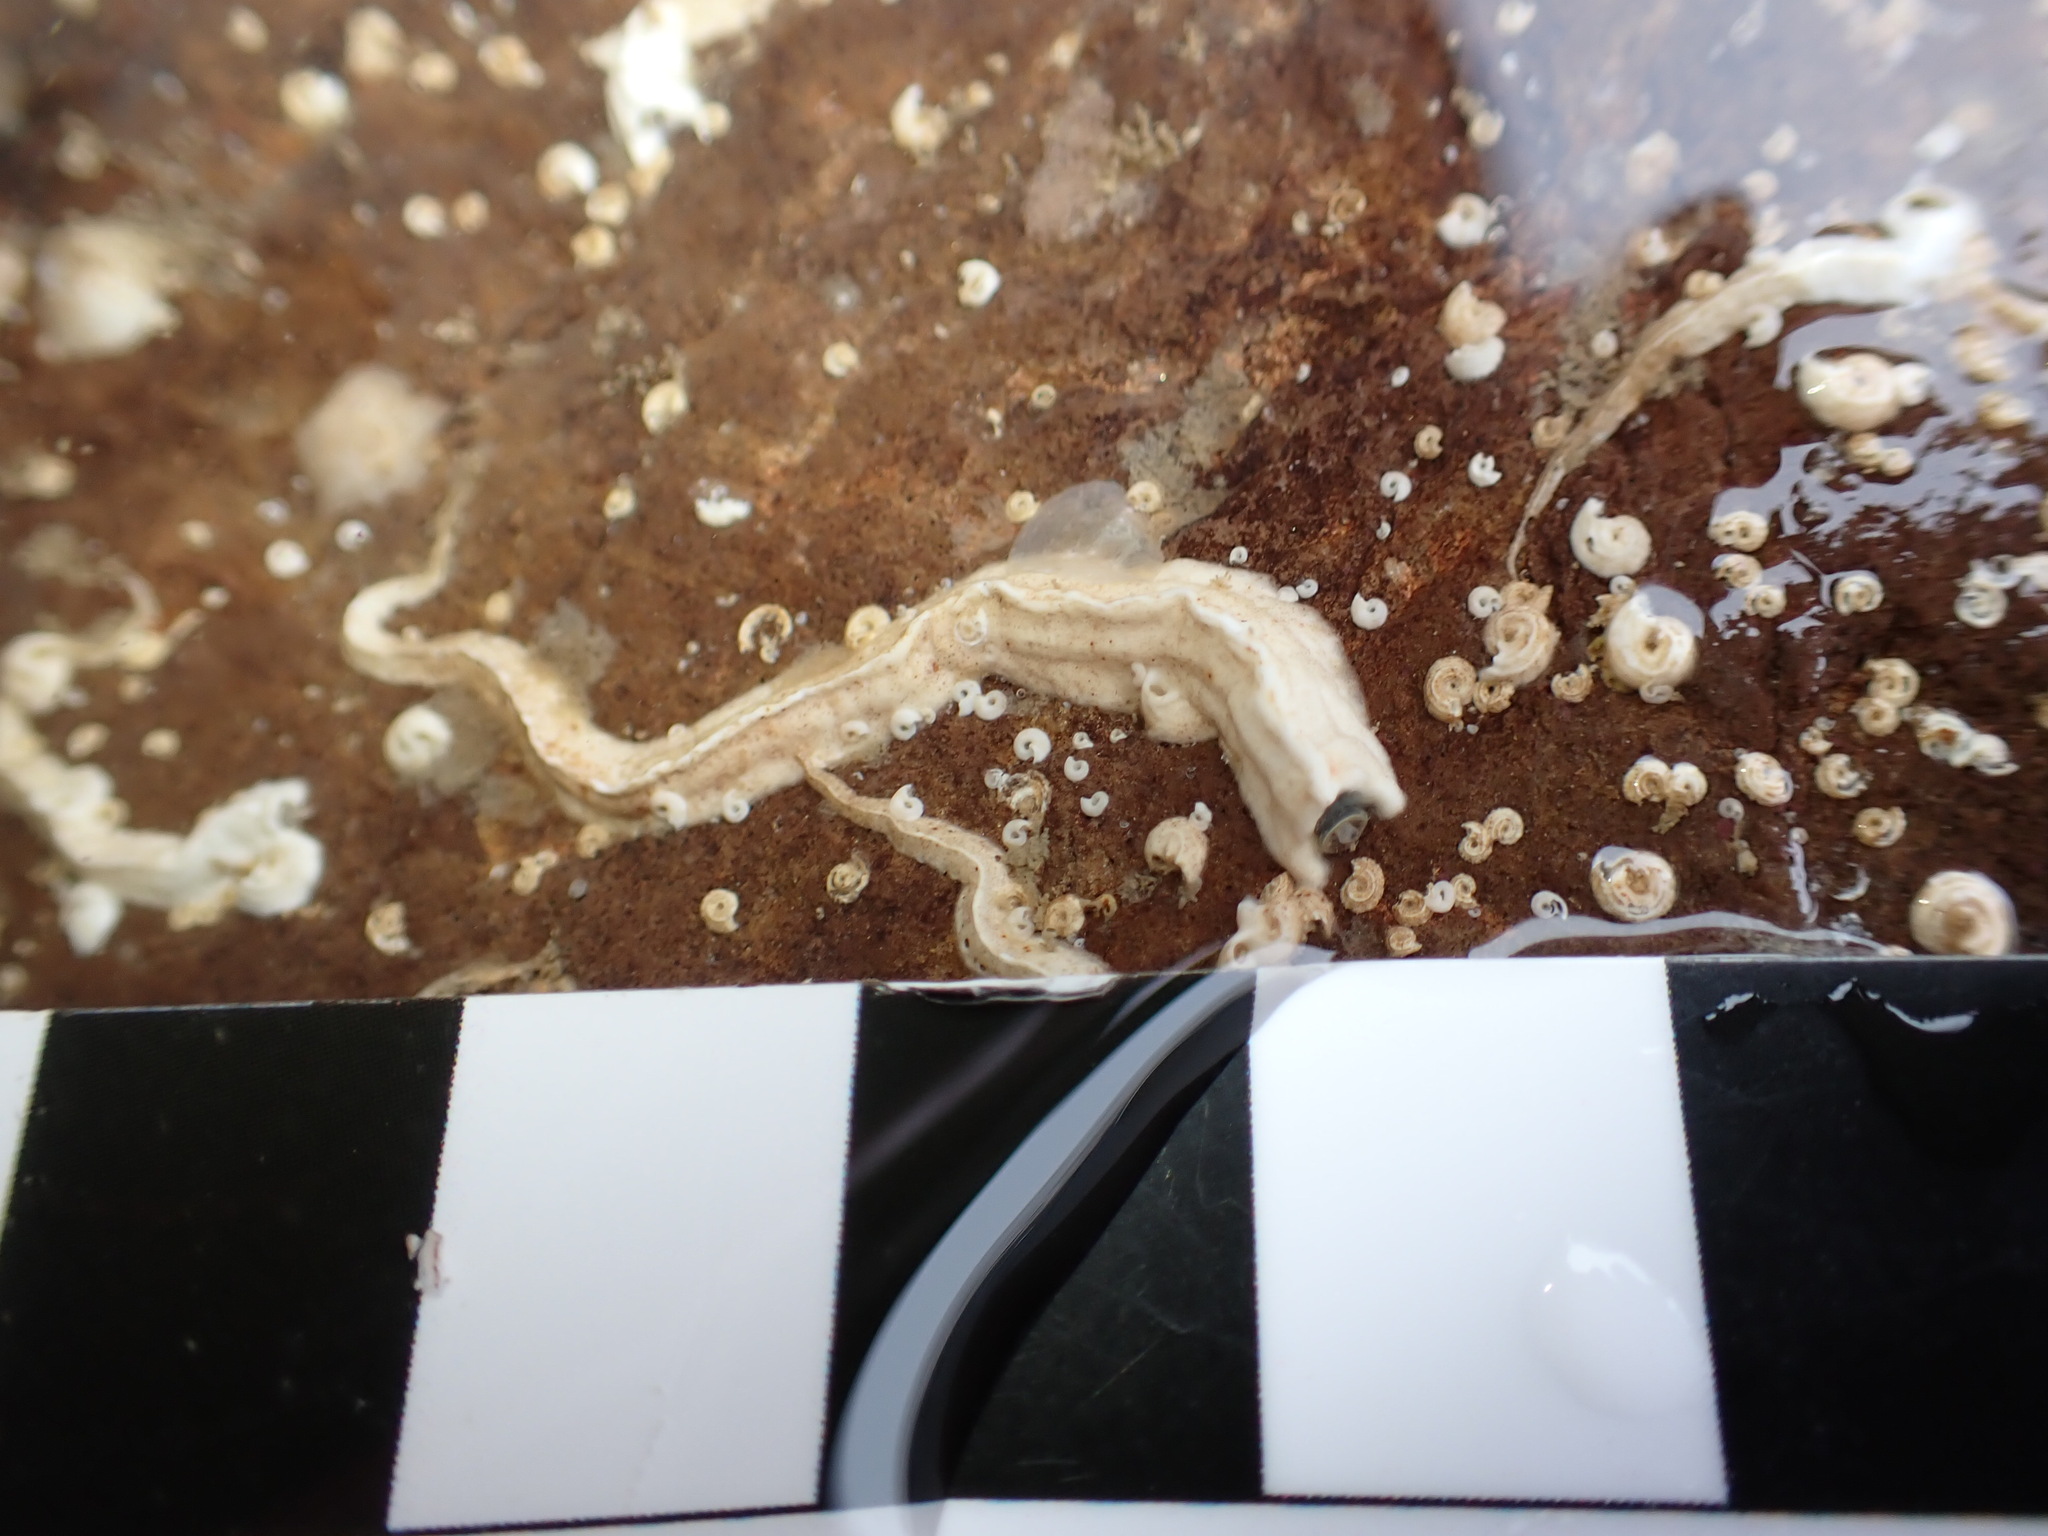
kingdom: Animalia
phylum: Annelida
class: Polychaeta
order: Sabellida
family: Serpulidae
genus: Spirobranchus
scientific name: Spirobranchus lamarcki
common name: Keelworm
